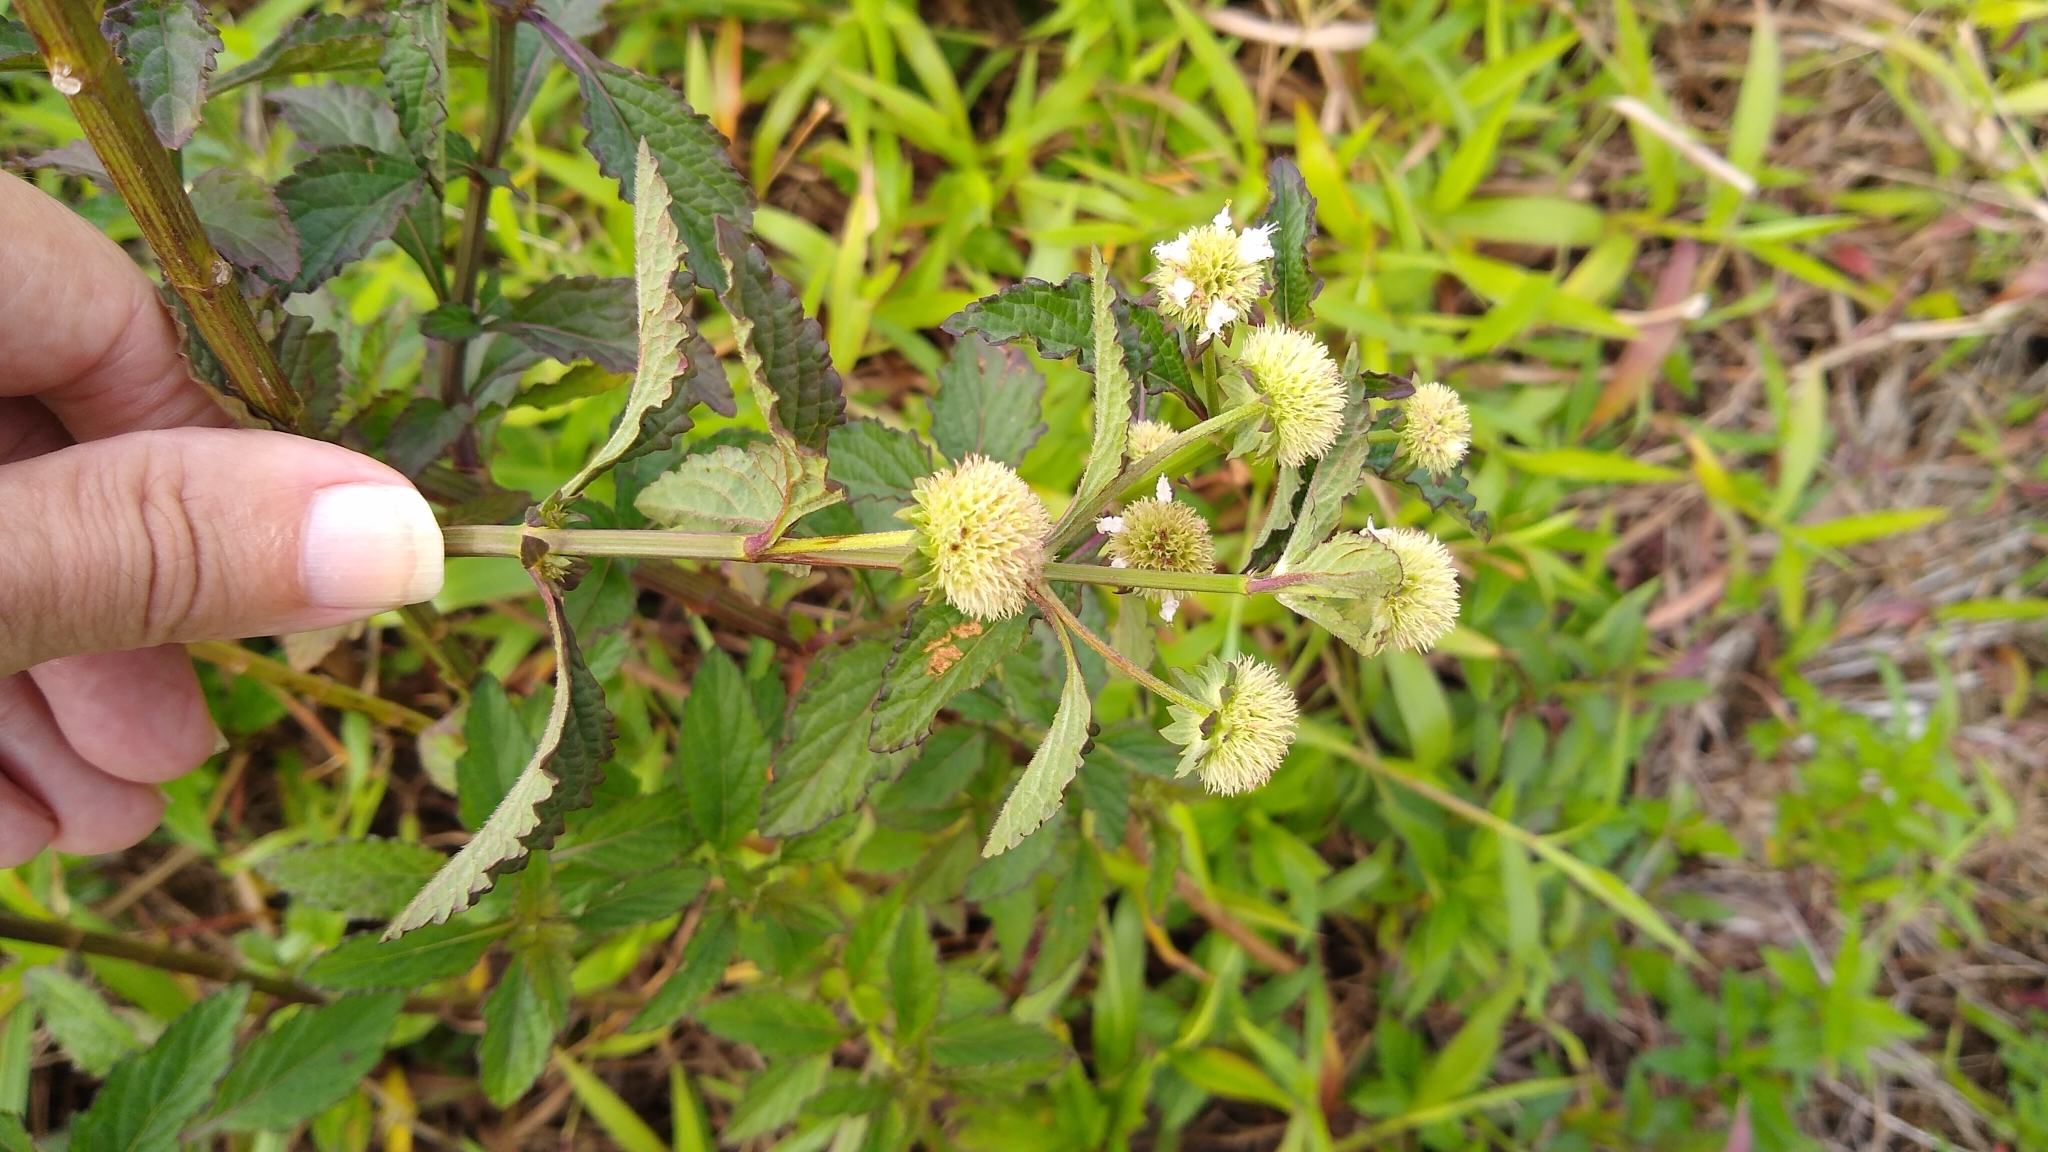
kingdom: Plantae
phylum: Tracheophyta
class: Magnoliopsida
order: Lamiales
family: Lamiaceae
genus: Hyptis
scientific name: Hyptis capitata
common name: False ironwort
